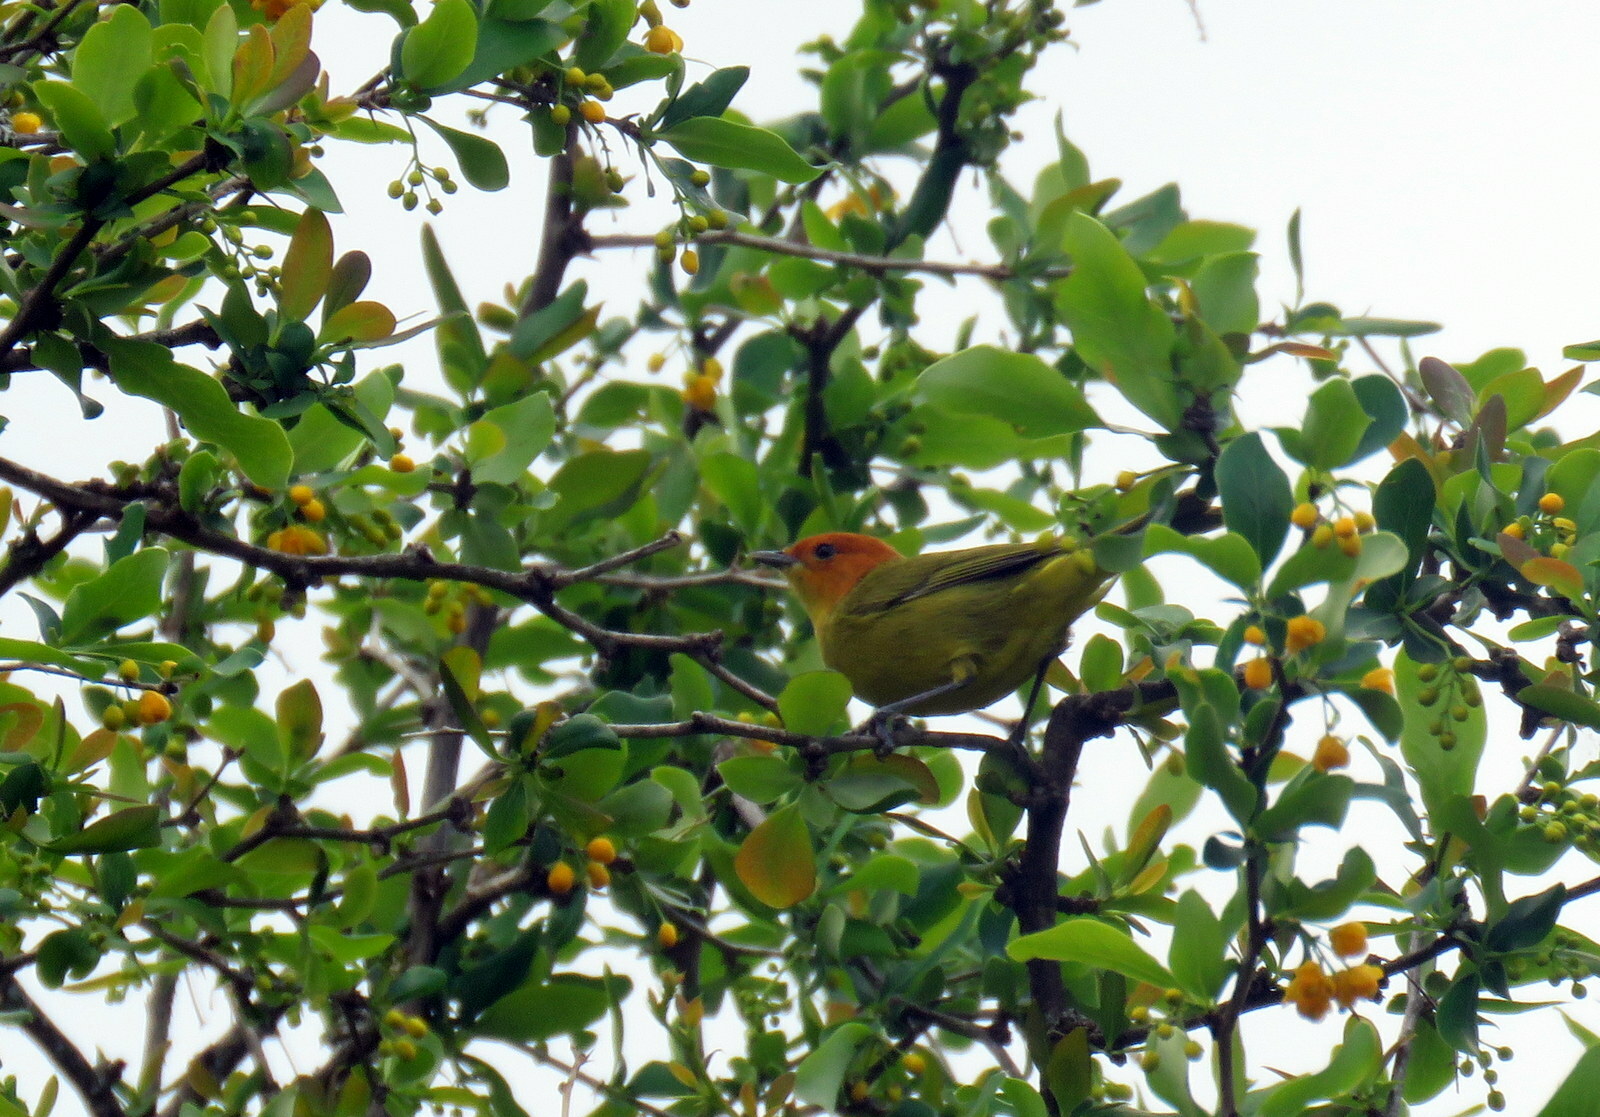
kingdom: Animalia
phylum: Chordata
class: Aves
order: Passeriformes
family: Thraupidae
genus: Thlypopsis
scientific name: Thlypopsis ruficeps
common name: Rust-and-yellow tanager
